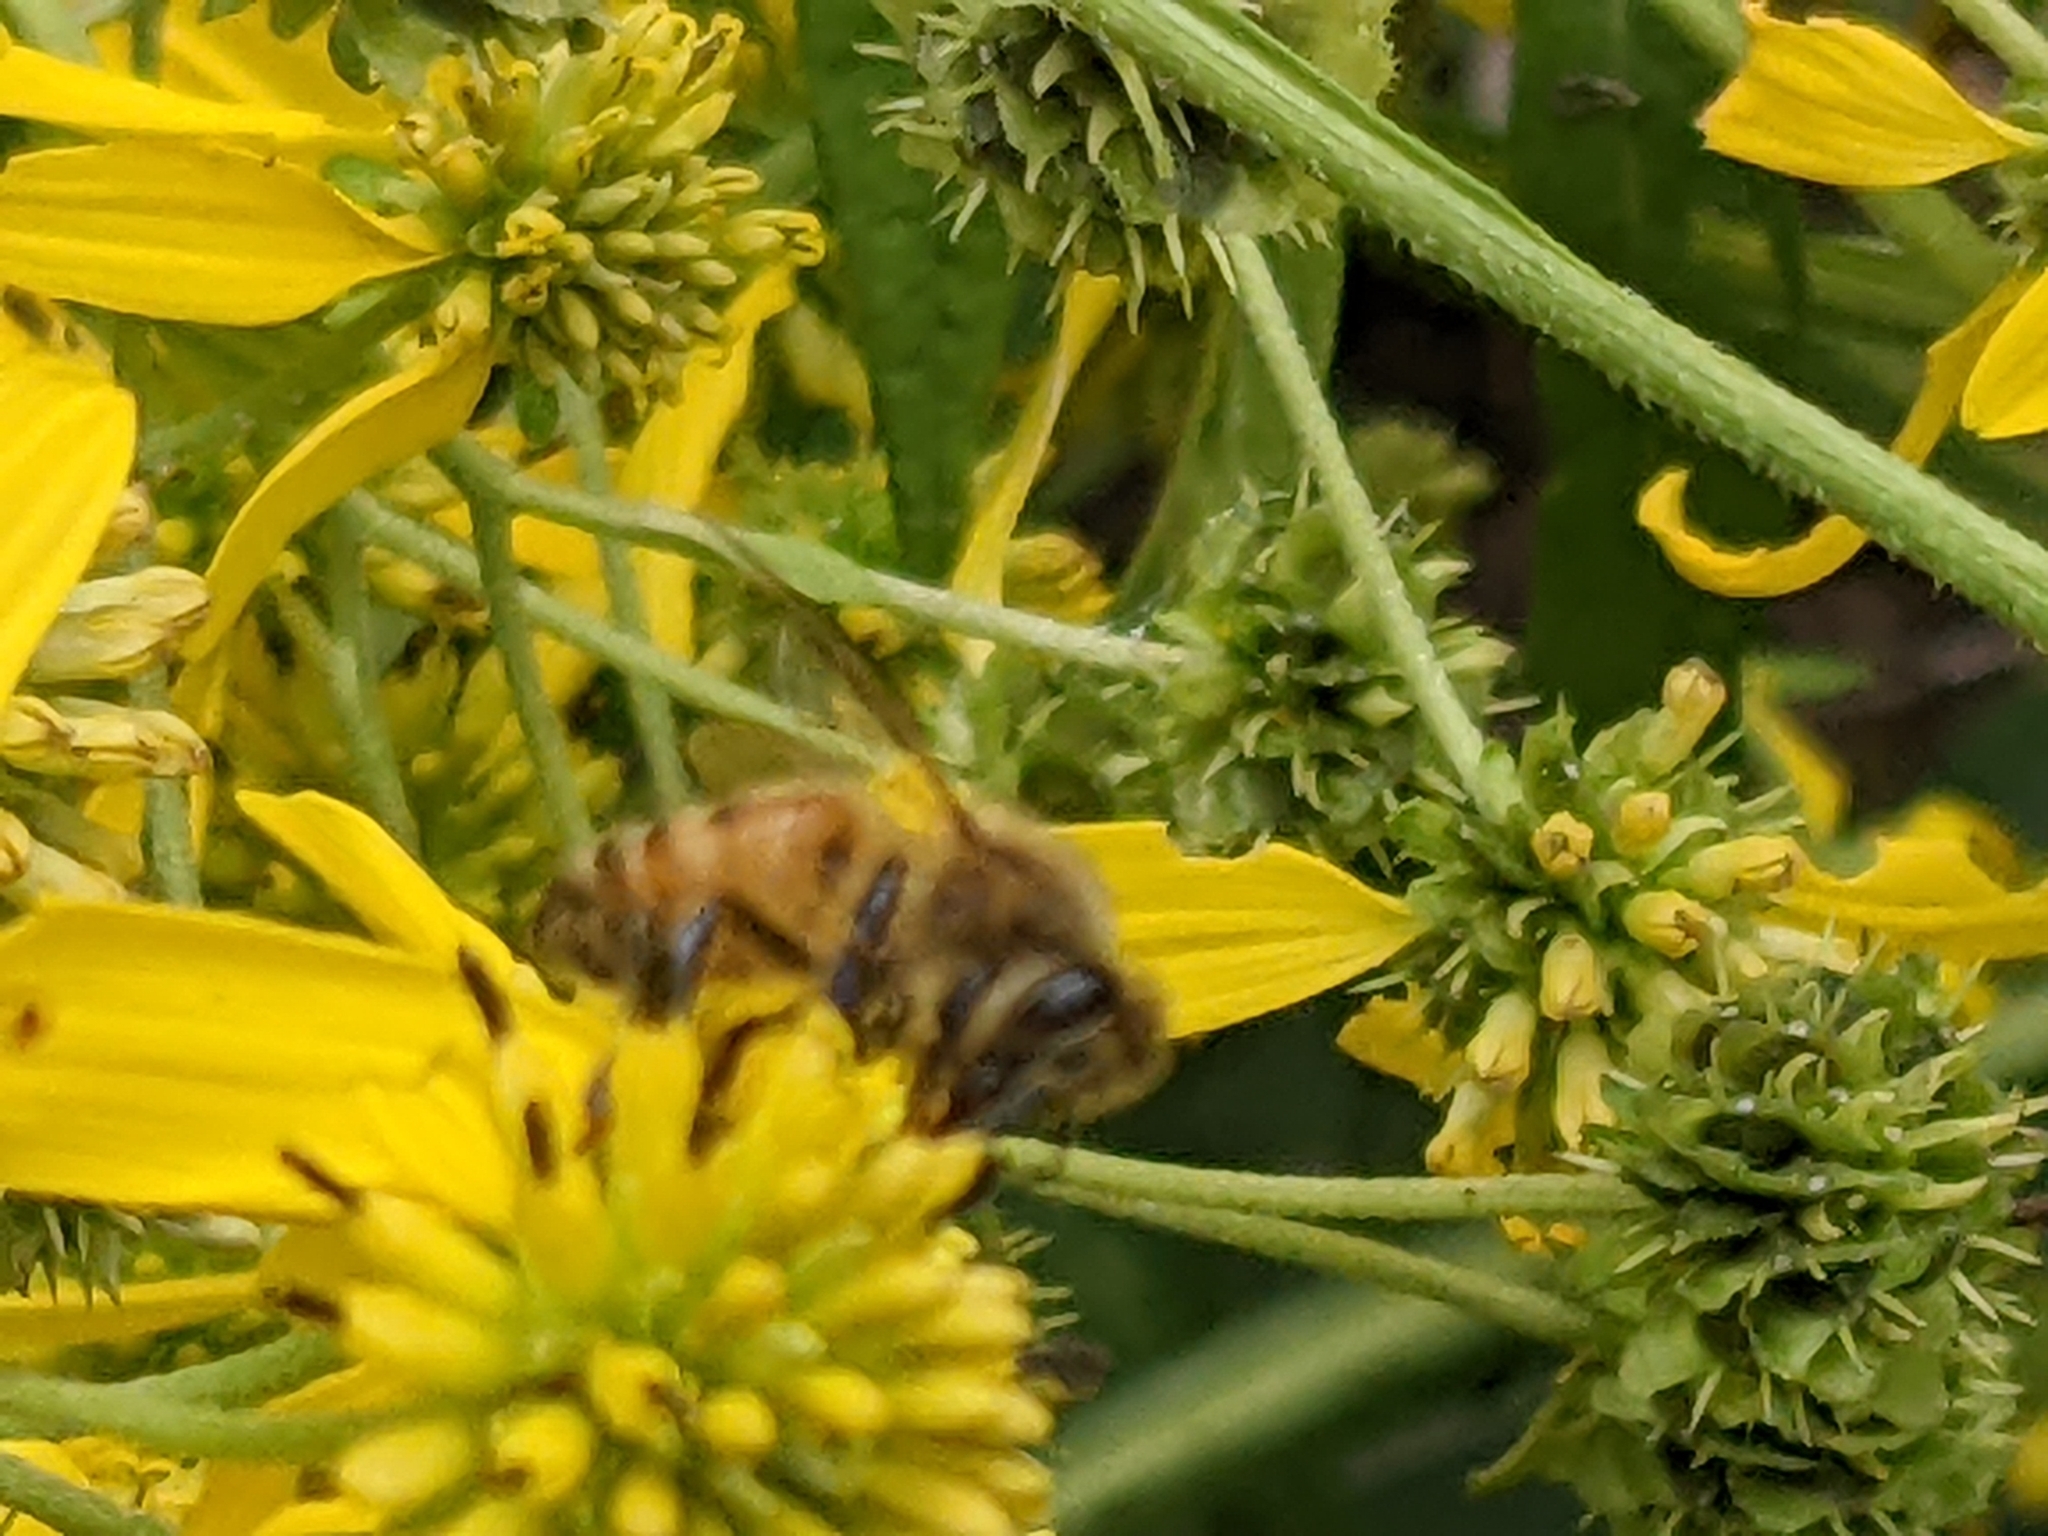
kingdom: Animalia
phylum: Arthropoda
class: Insecta
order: Hymenoptera
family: Apidae
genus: Apis
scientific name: Apis mellifera
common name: Honey bee
